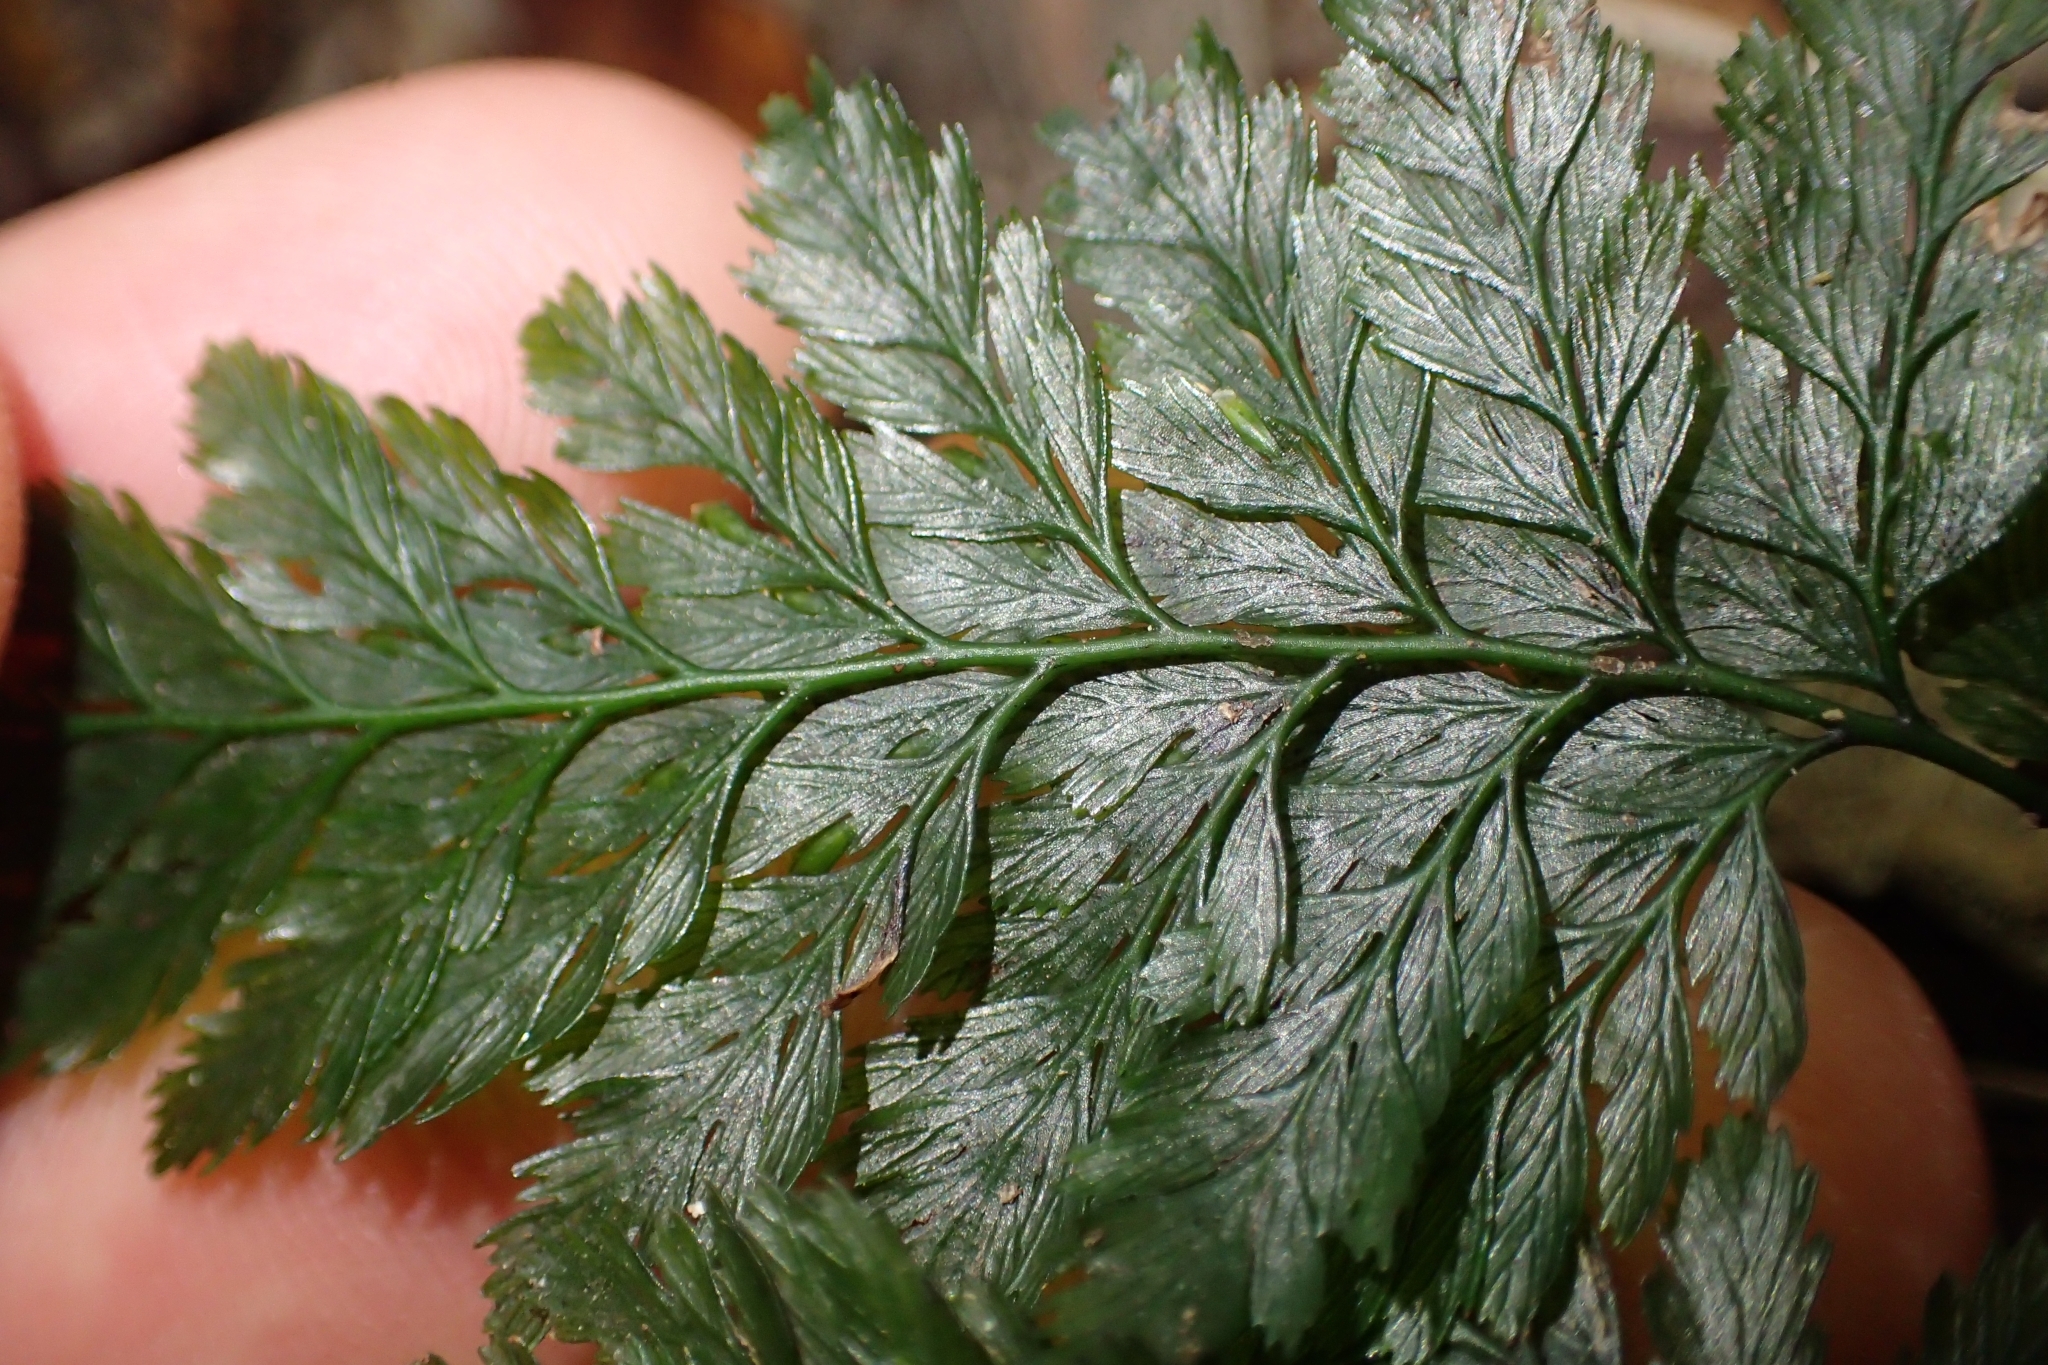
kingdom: Plantae
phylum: Tracheophyta
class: Polypodiopsida
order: Hymenophyllales
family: Hymenophyllaceae
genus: Abrodictyum
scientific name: Abrodictyum elongatum
